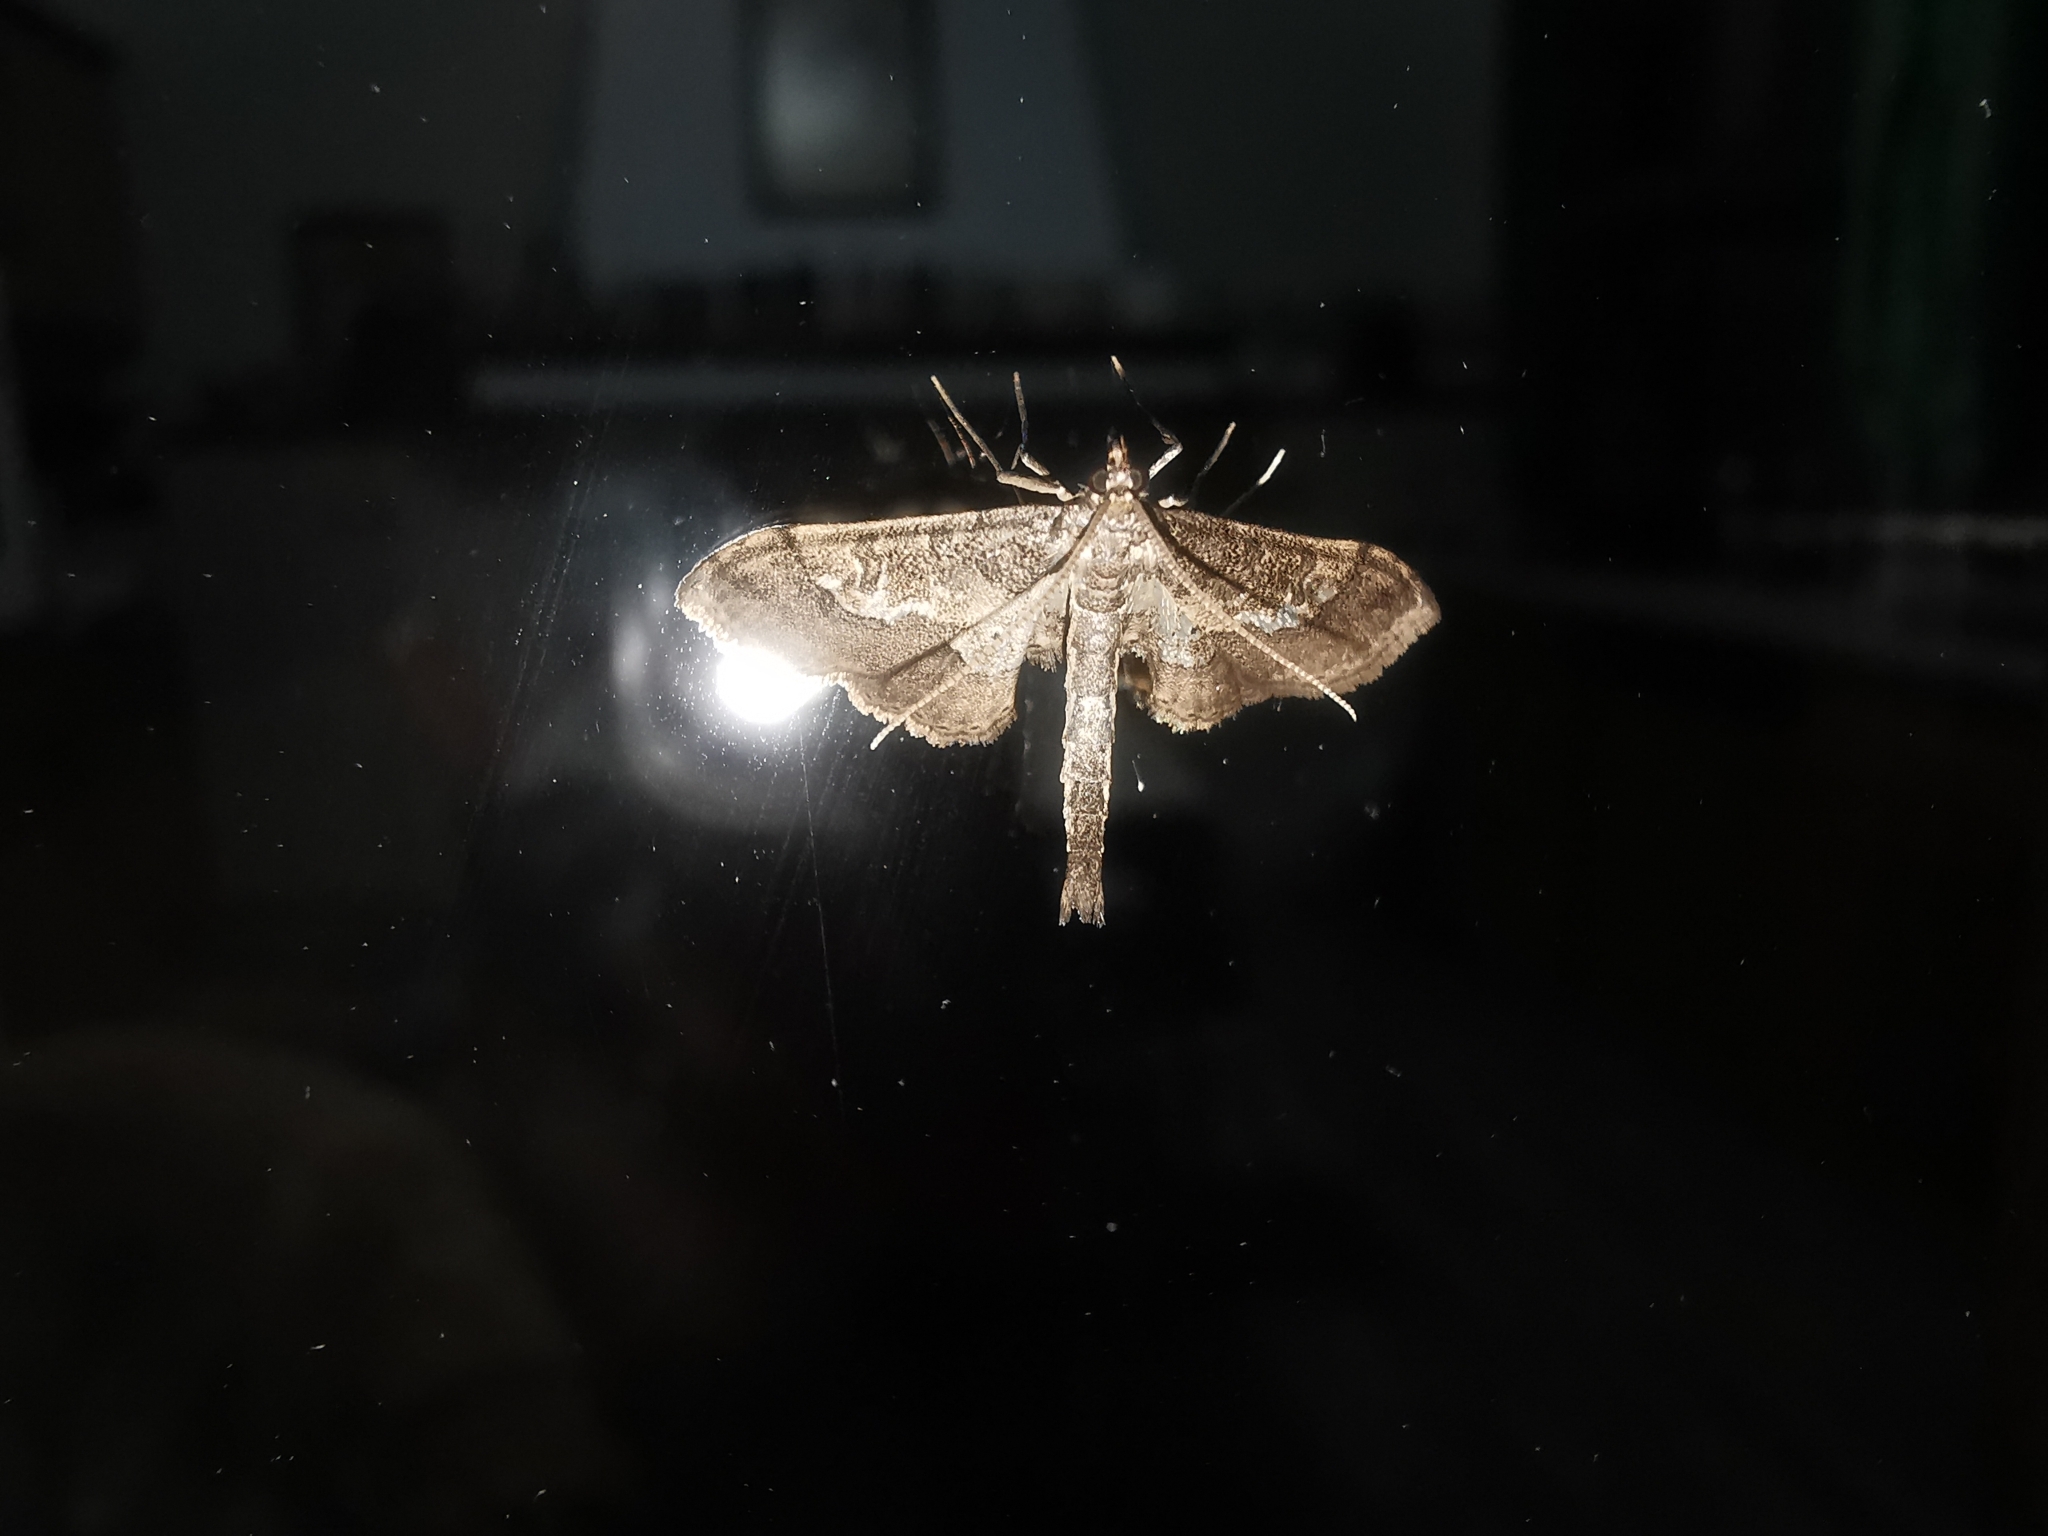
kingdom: Animalia
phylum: Arthropoda
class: Insecta
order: Lepidoptera
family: Crambidae
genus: Hydriris
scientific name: Hydriris ornatalis
